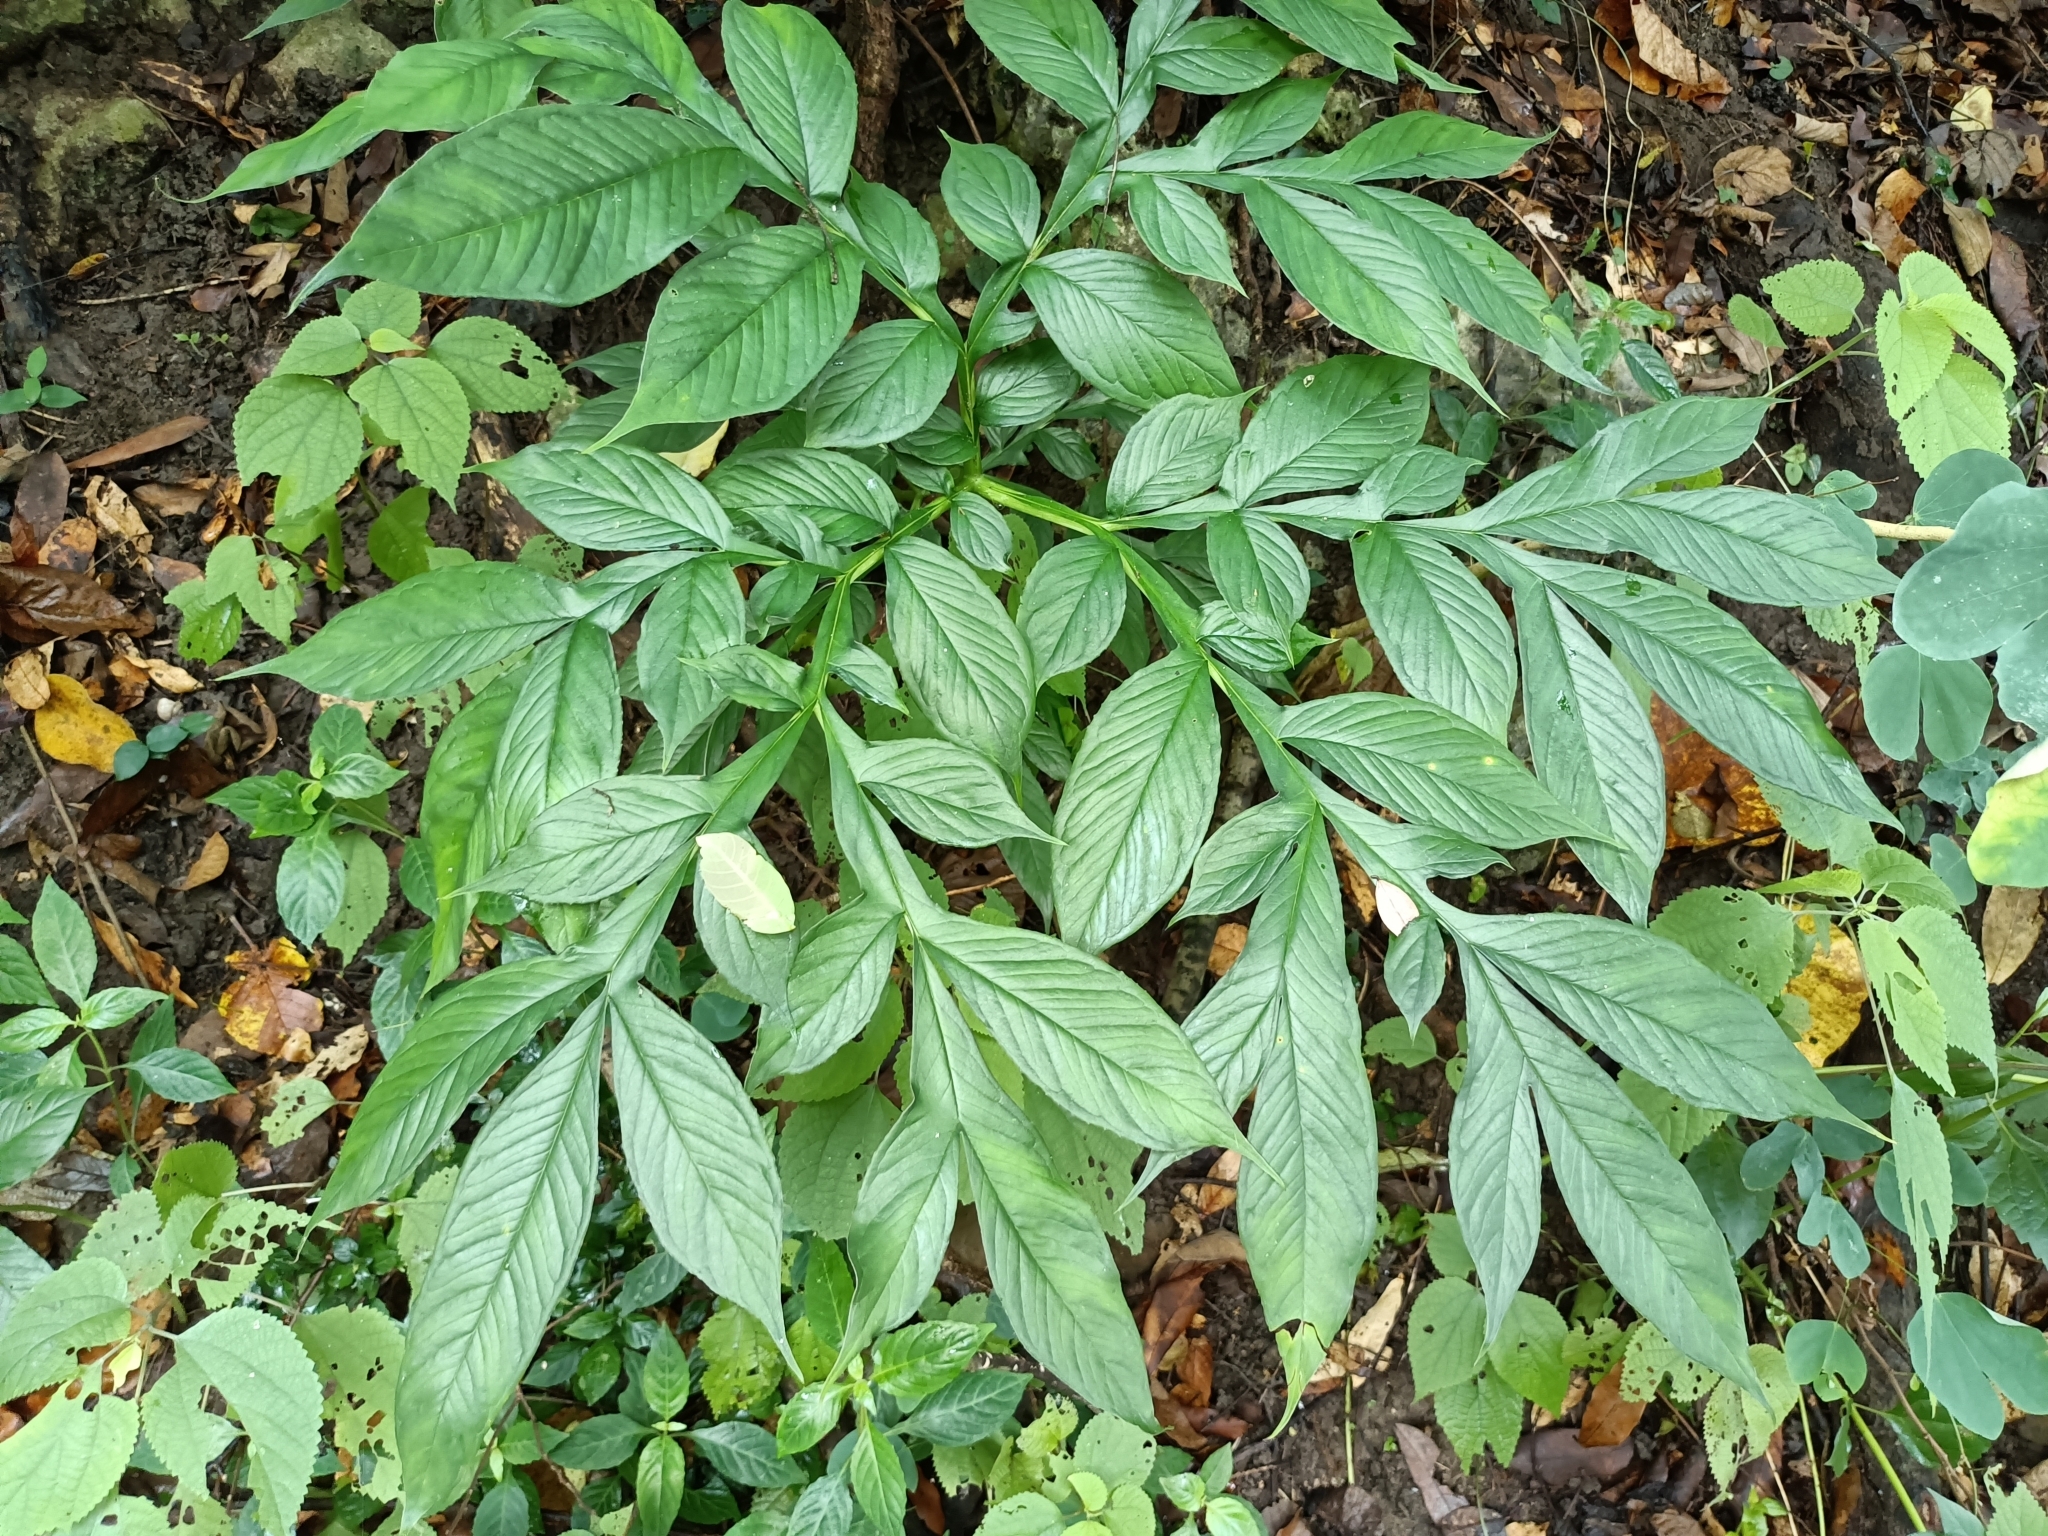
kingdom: Plantae
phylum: Tracheophyta
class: Liliopsida
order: Alismatales
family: Araceae
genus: Amorphophallus
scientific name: Amorphophallus henryi
